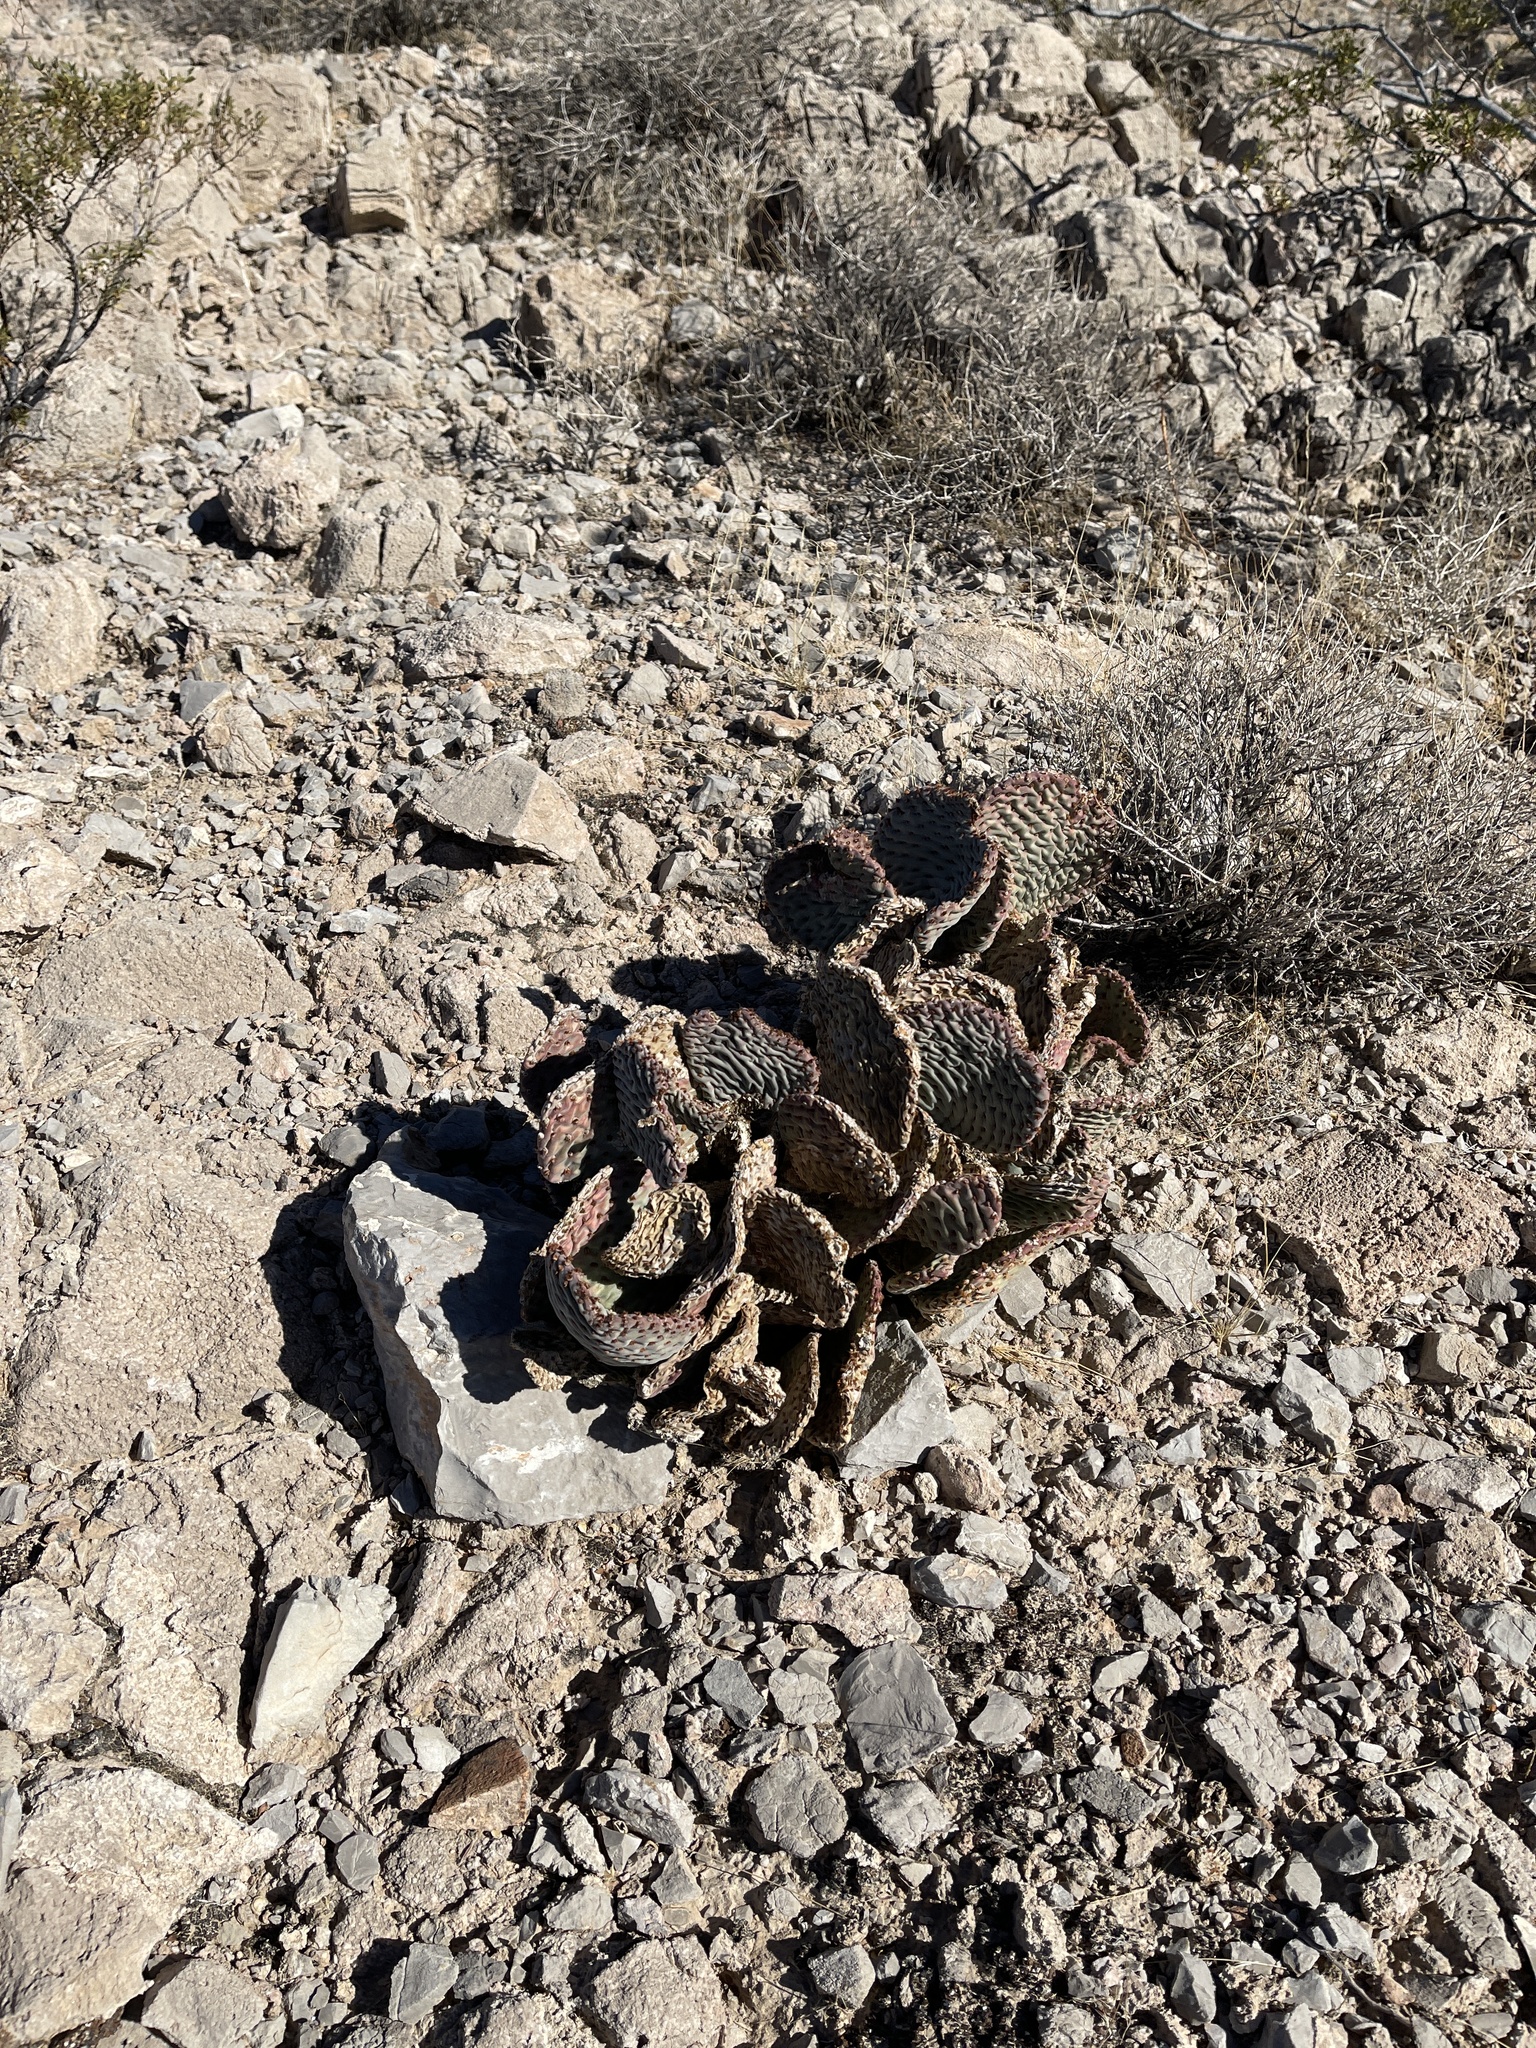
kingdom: Plantae
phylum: Tracheophyta
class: Magnoliopsida
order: Caryophyllales
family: Cactaceae
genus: Opuntia
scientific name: Opuntia basilaris
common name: Beavertail prickly-pear
